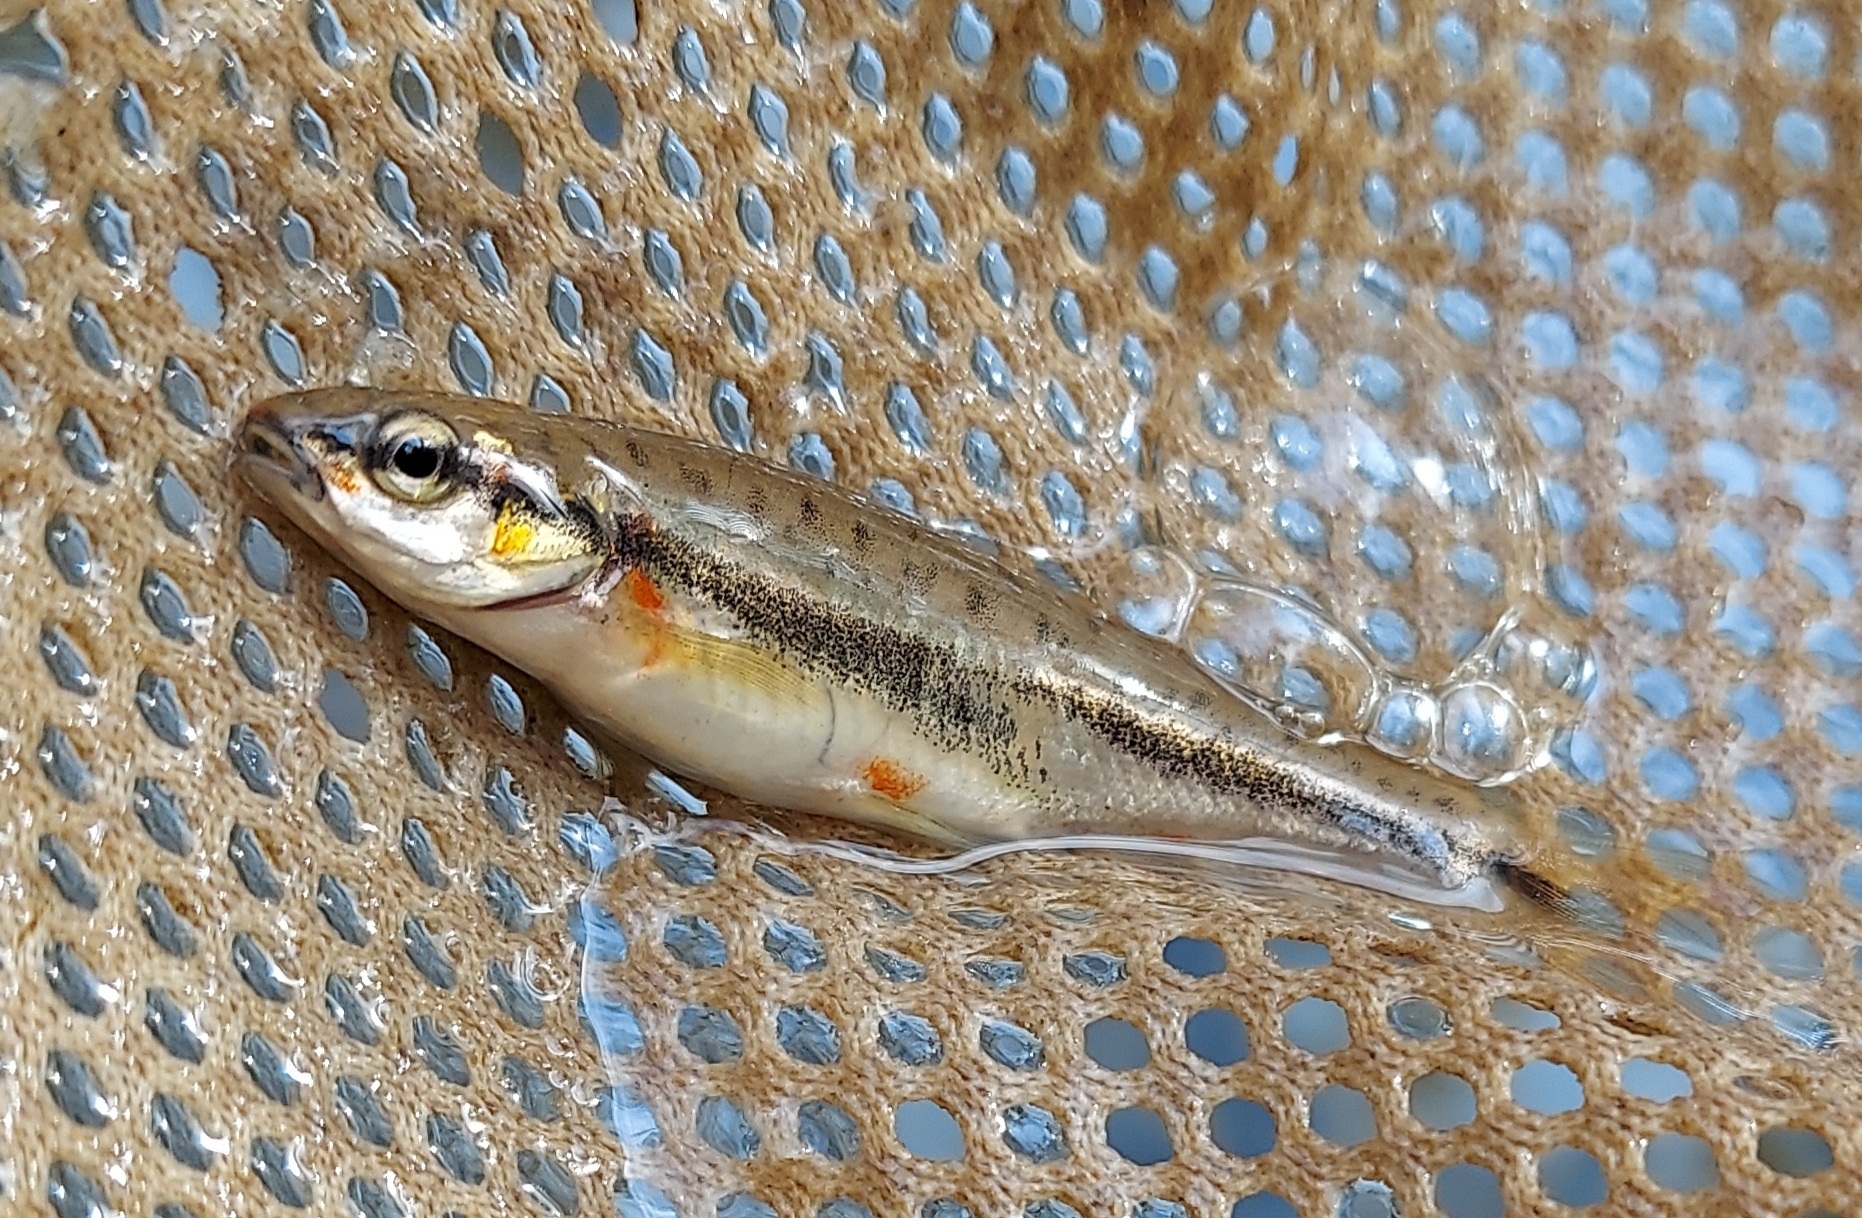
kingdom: Animalia
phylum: Chordata
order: Cypriniformes
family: Cyprinidae
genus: Chrosomus
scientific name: Chrosomus oreas
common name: Mountain redbelly dace
